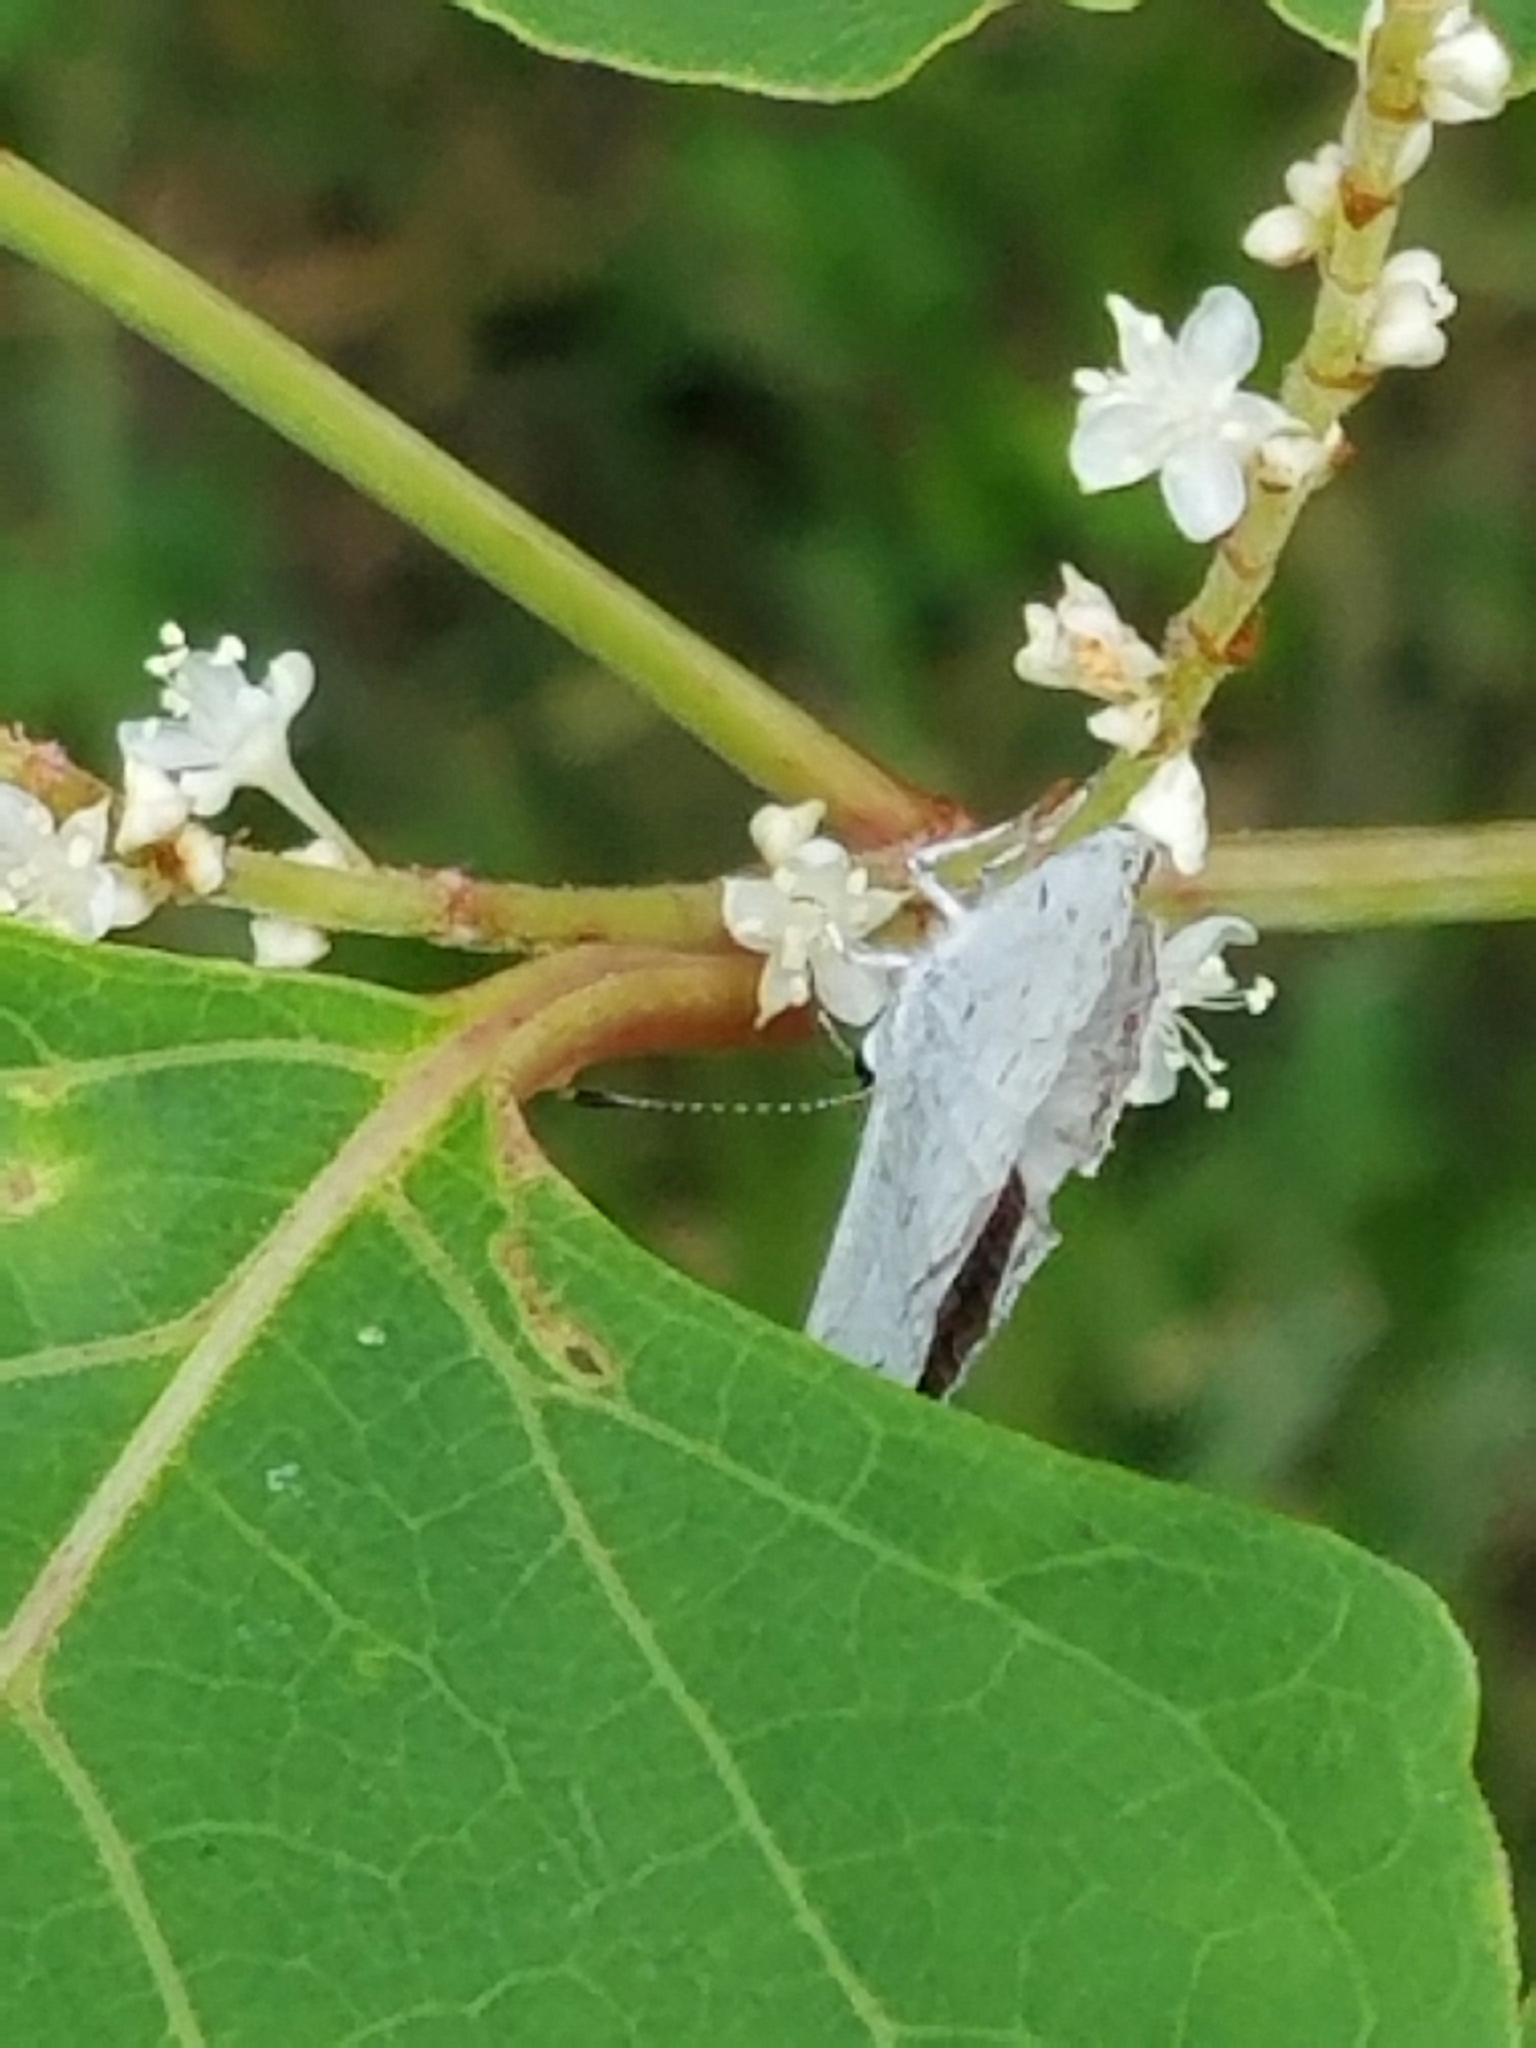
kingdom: Animalia
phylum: Arthropoda
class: Insecta
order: Lepidoptera
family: Lycaenidae
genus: Cyaniris
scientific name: Cyaniris neglecta
